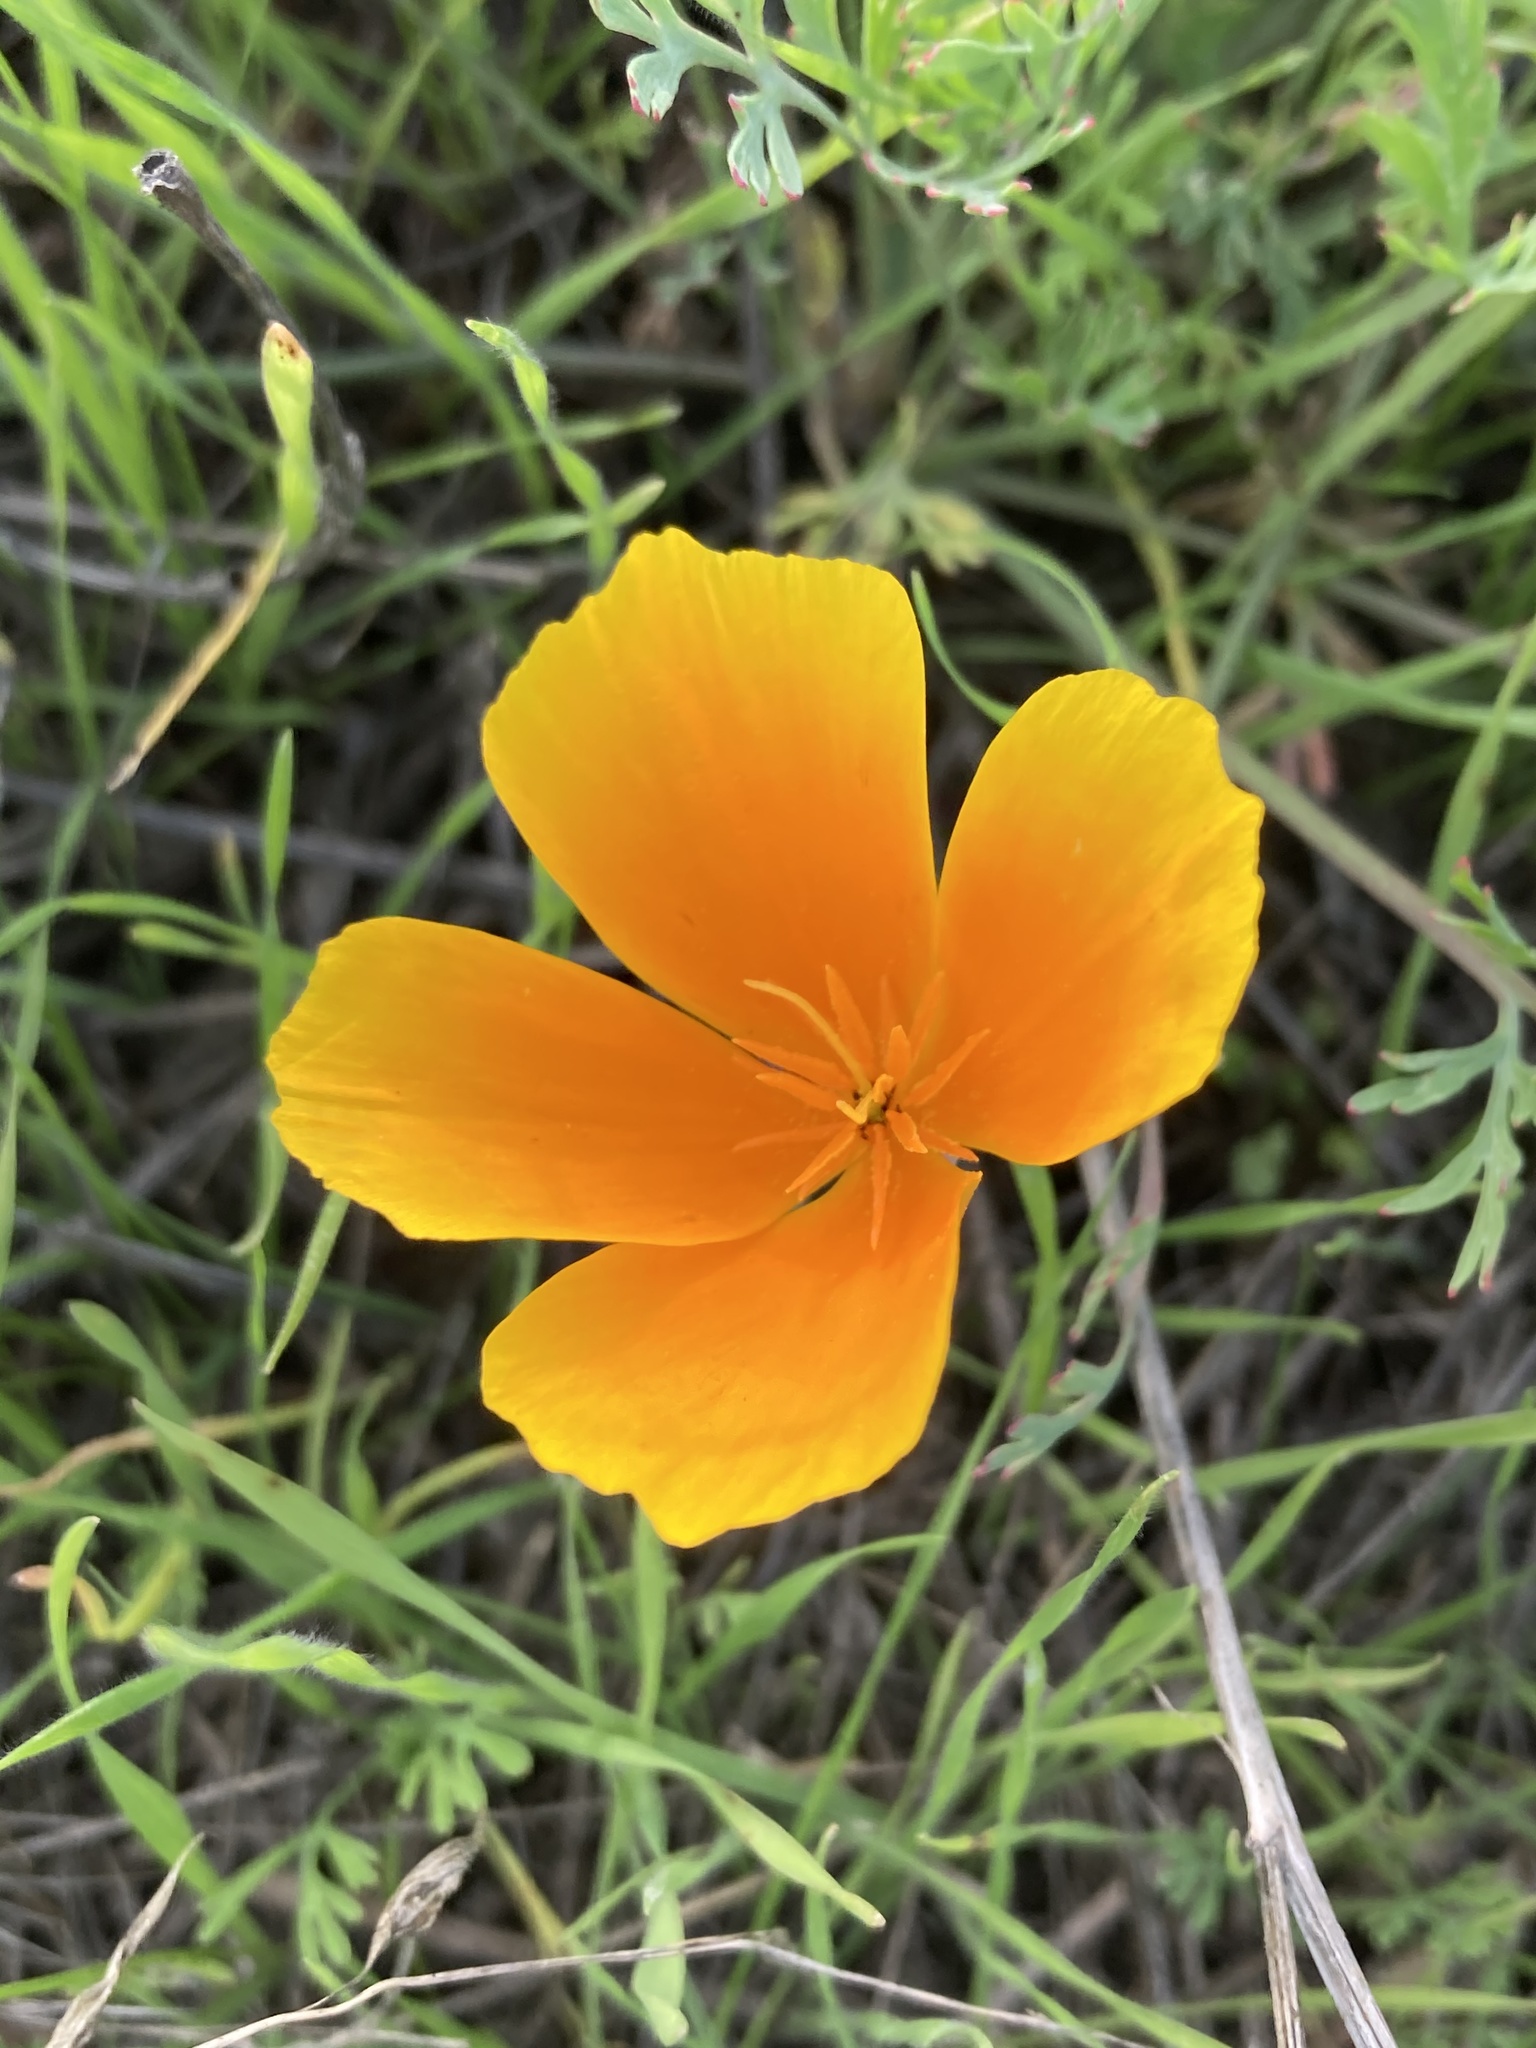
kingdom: Plantae
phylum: Tracheophyta
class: Magnoliopsida
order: Ranunculales
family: Papaveraceae
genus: Eschscholzia
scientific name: Eschscholzia californica
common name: California poppy
